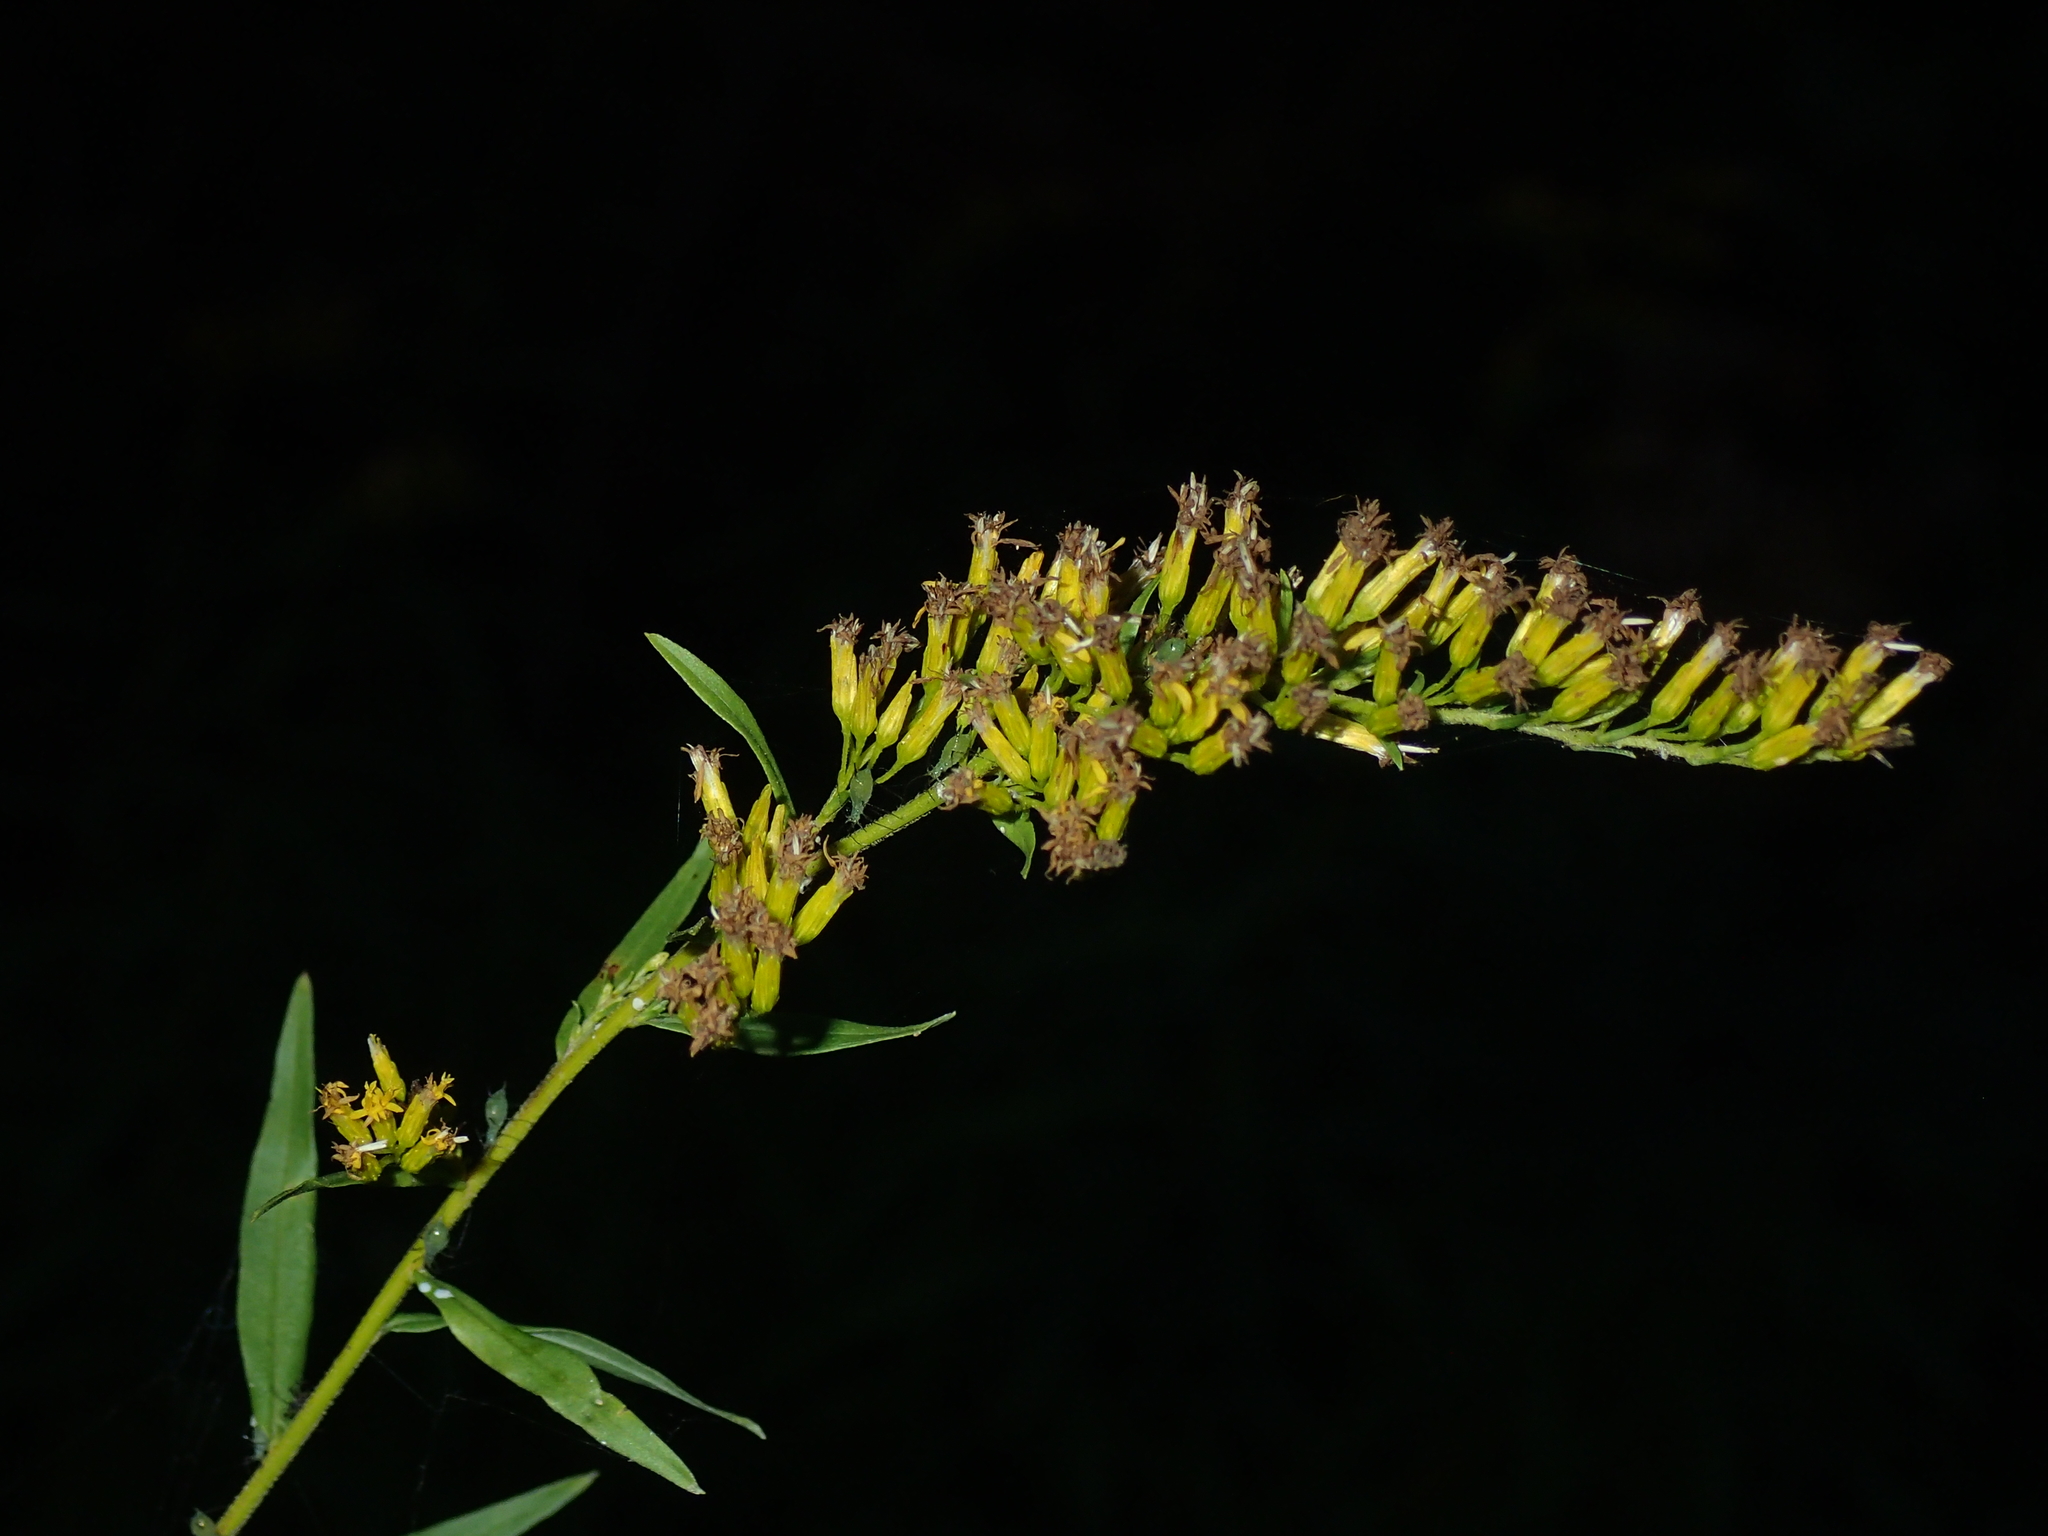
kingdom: Plantae
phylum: Tracheophyta
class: Magnoliopsida
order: Asterales
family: Asteraceae
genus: Solidago
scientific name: Solidago odora
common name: Anise-scented goldenrod
